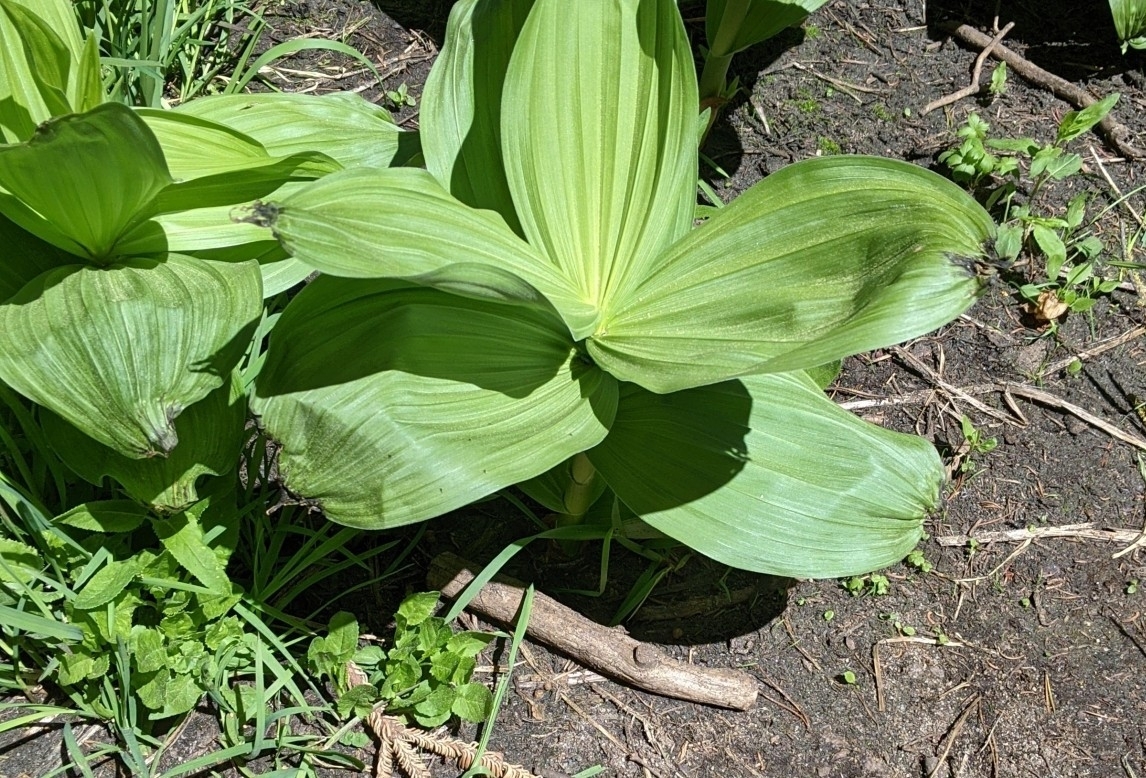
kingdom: Plantae
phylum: Tracheophyta
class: Liliopsida
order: Liliales
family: Melanthiaceae
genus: Veratrum
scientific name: Veratrum californicum
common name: California veratrum
